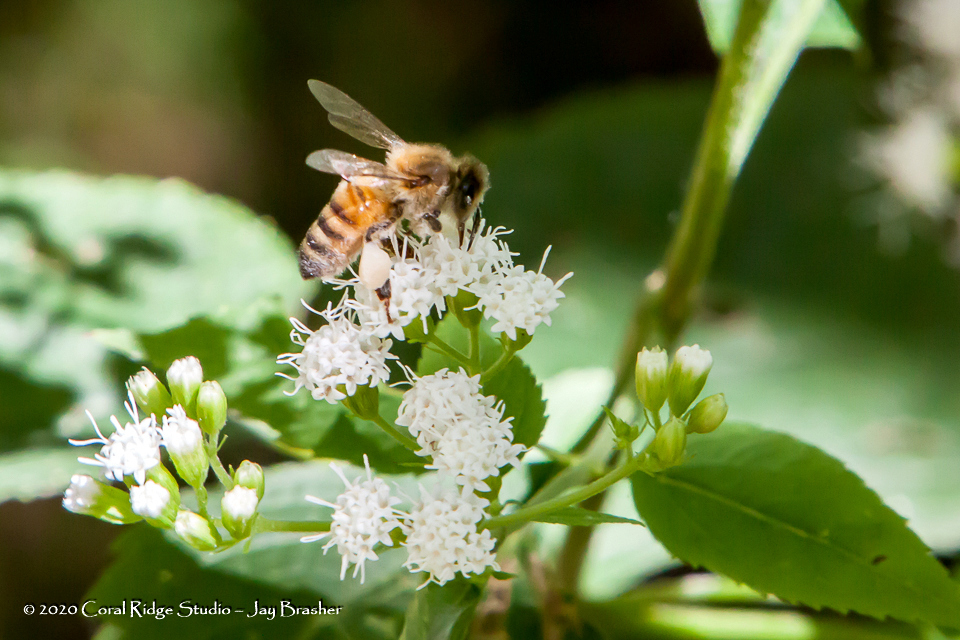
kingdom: Animalia
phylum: Arthropoda
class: Insecta
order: Hymenoptera
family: Apidae
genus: Apis
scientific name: Apis mellifera
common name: Honey bee
